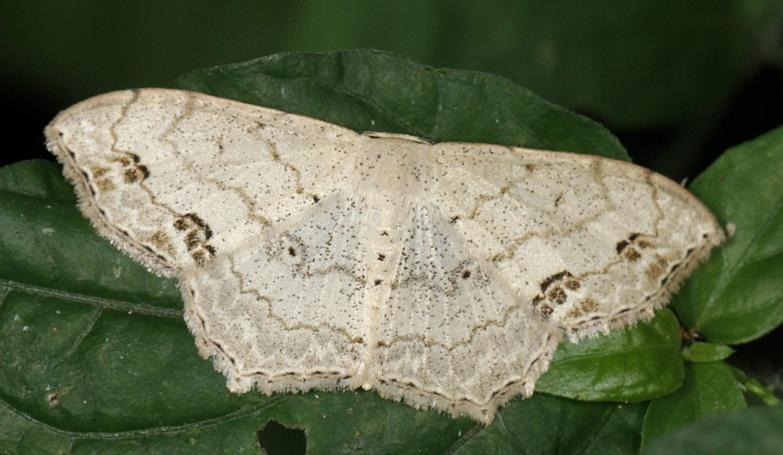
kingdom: Animalia
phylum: Arthropoda
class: Insecta
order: Lepidoptera
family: Geometridae
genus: Scopula
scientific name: Scopula fimbrilineata
